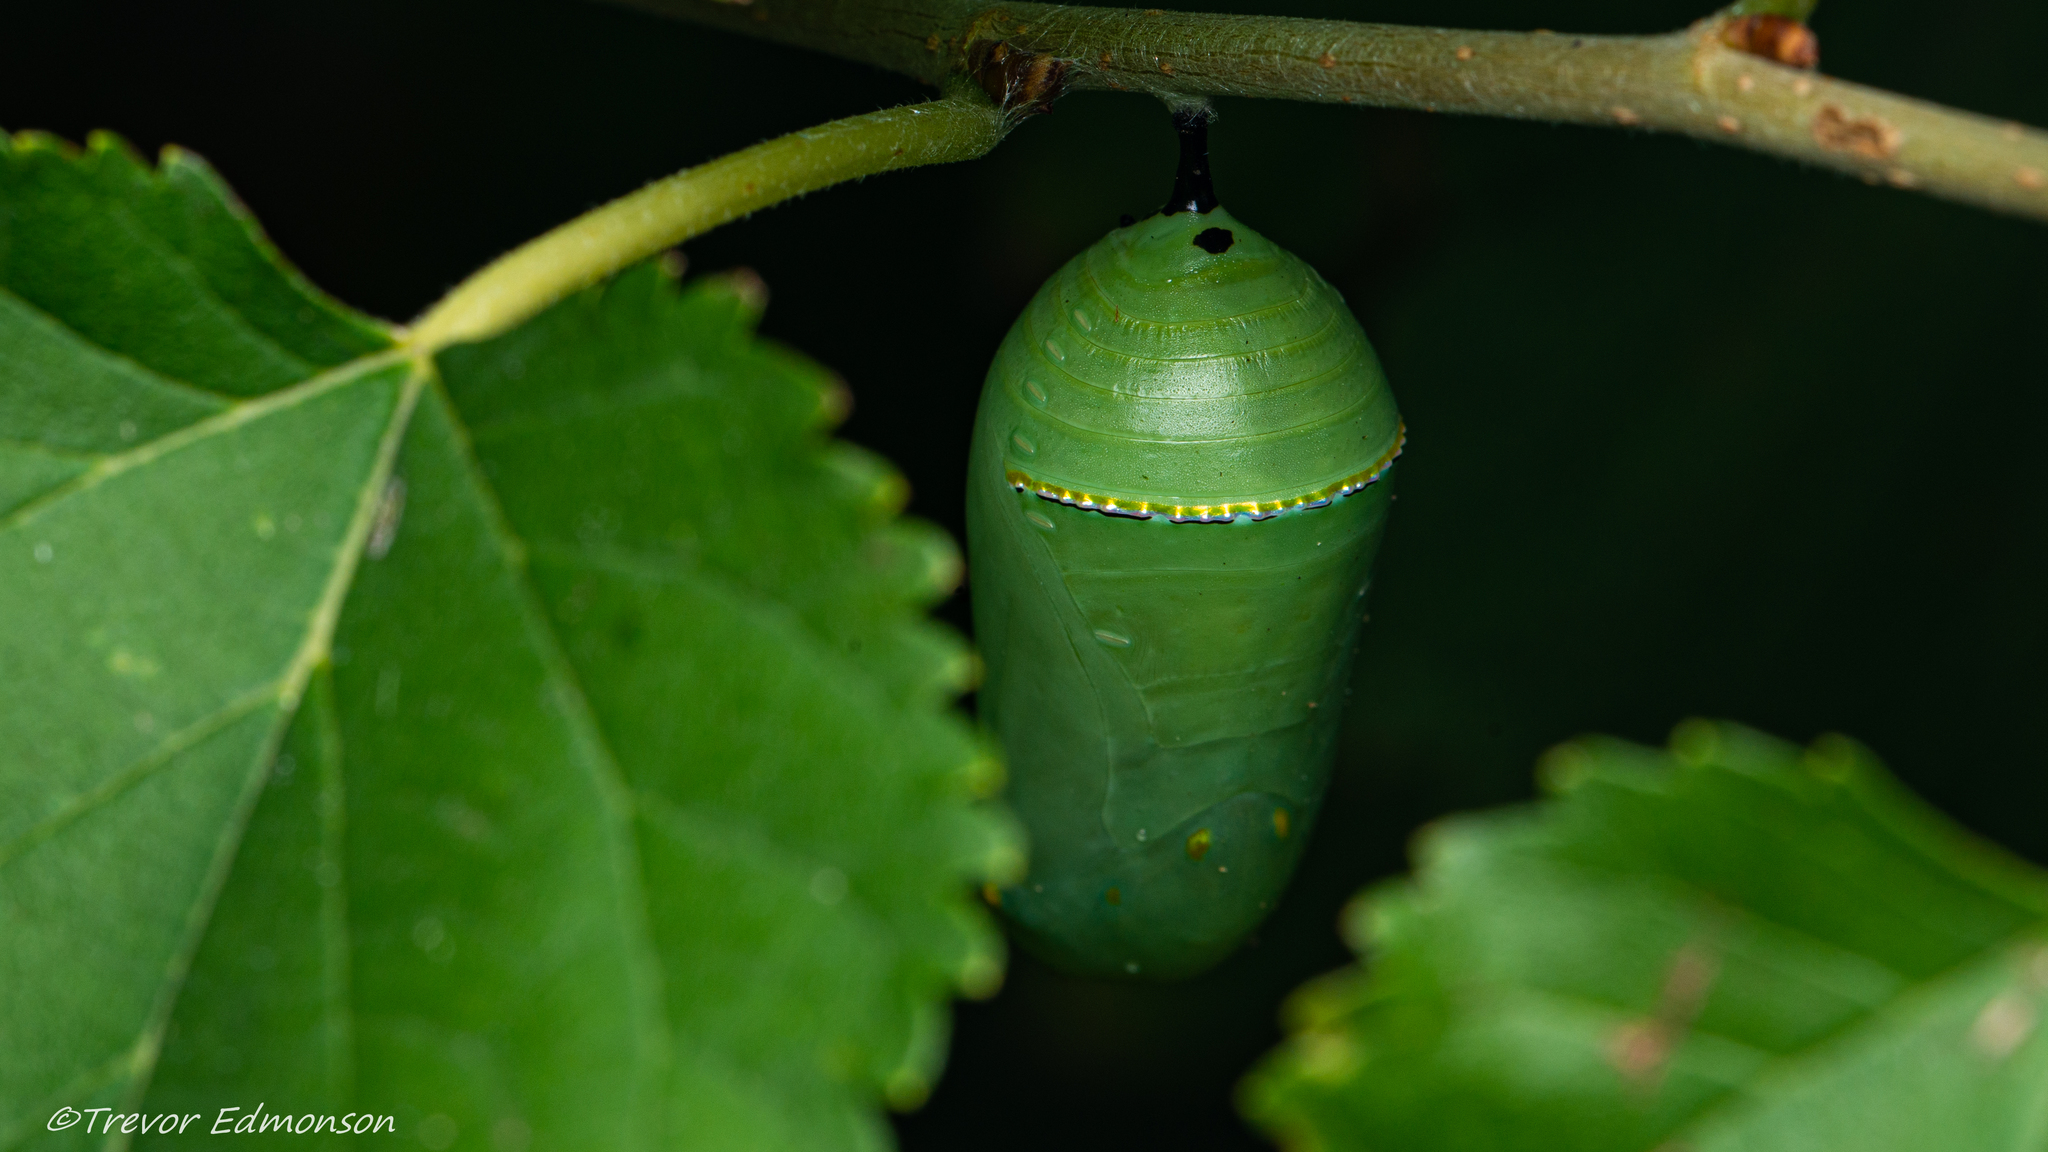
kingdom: Animalia
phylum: Arthropoda
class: Insecta
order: Lepidoptera
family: Nymphalidae
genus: Danaus
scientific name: Danaus plexippus
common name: Monarch
